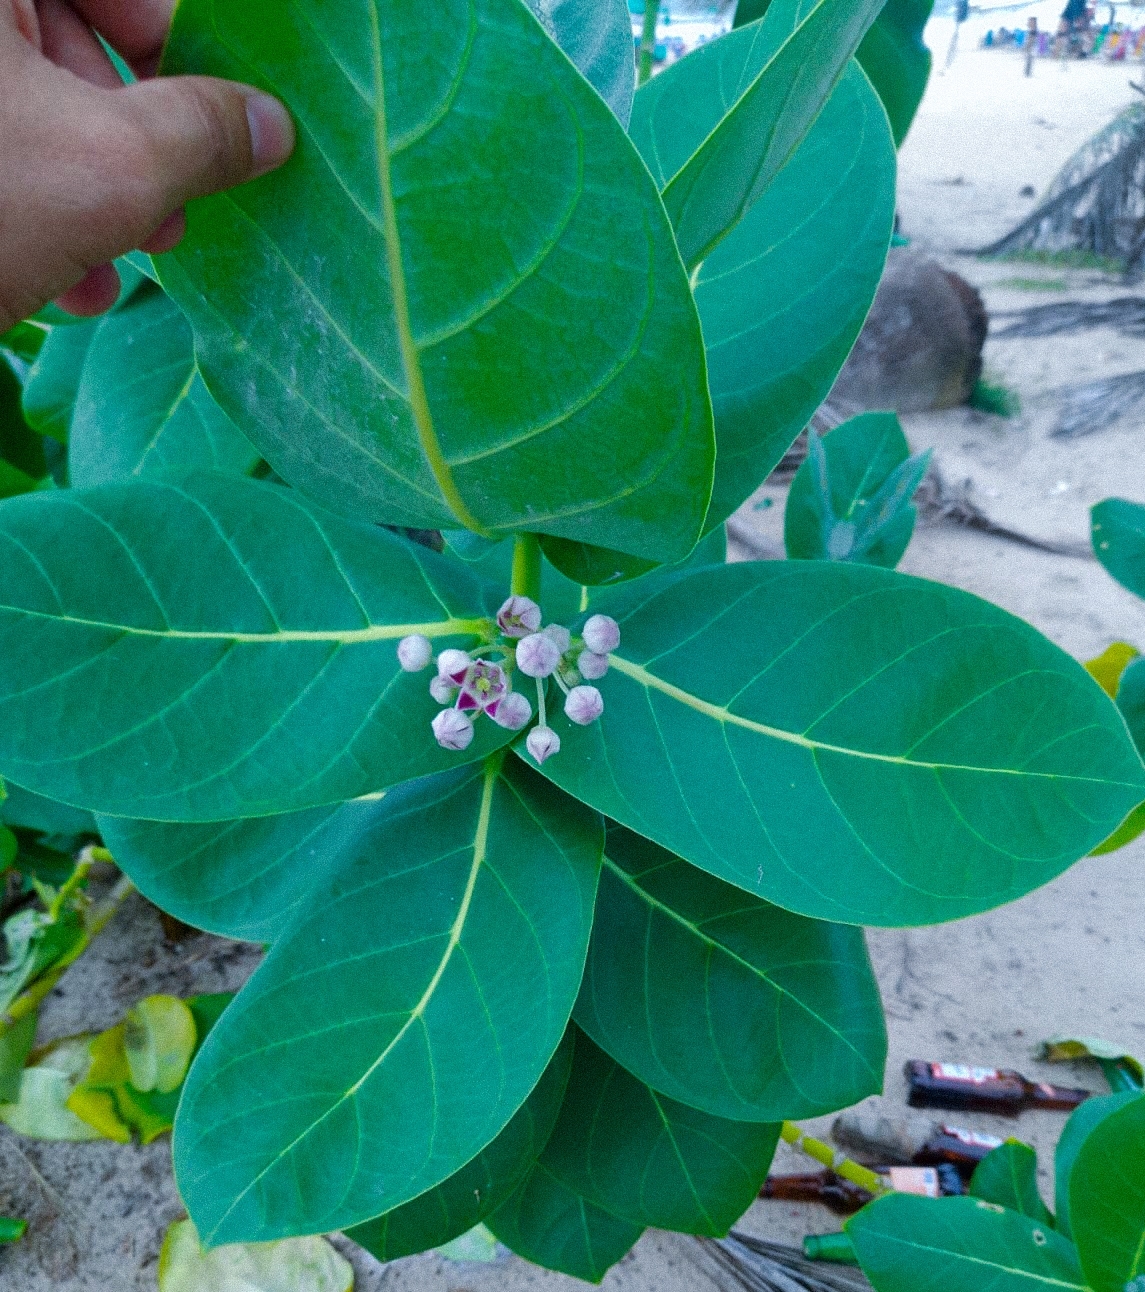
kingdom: Plantae
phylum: Tracheophyta
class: Magnoliopsida
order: Gentianales
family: Apocynaceae
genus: Calotropis
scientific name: Calotropis procera
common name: Roostertree
